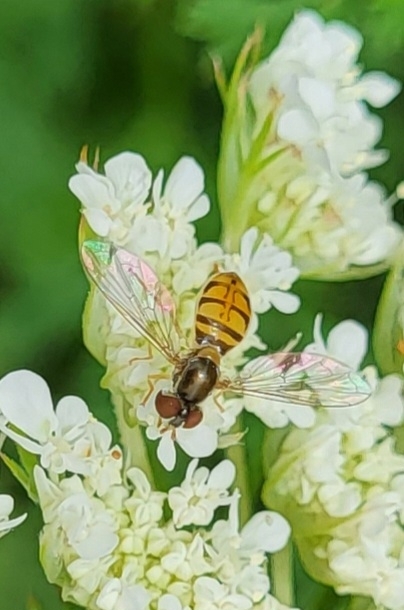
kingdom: Animalia
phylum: Arthropoda
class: Insecta
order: Diptera
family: Syrphidae
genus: Toxomerus
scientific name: Toxomerus marginatus
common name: Syrphid fly
